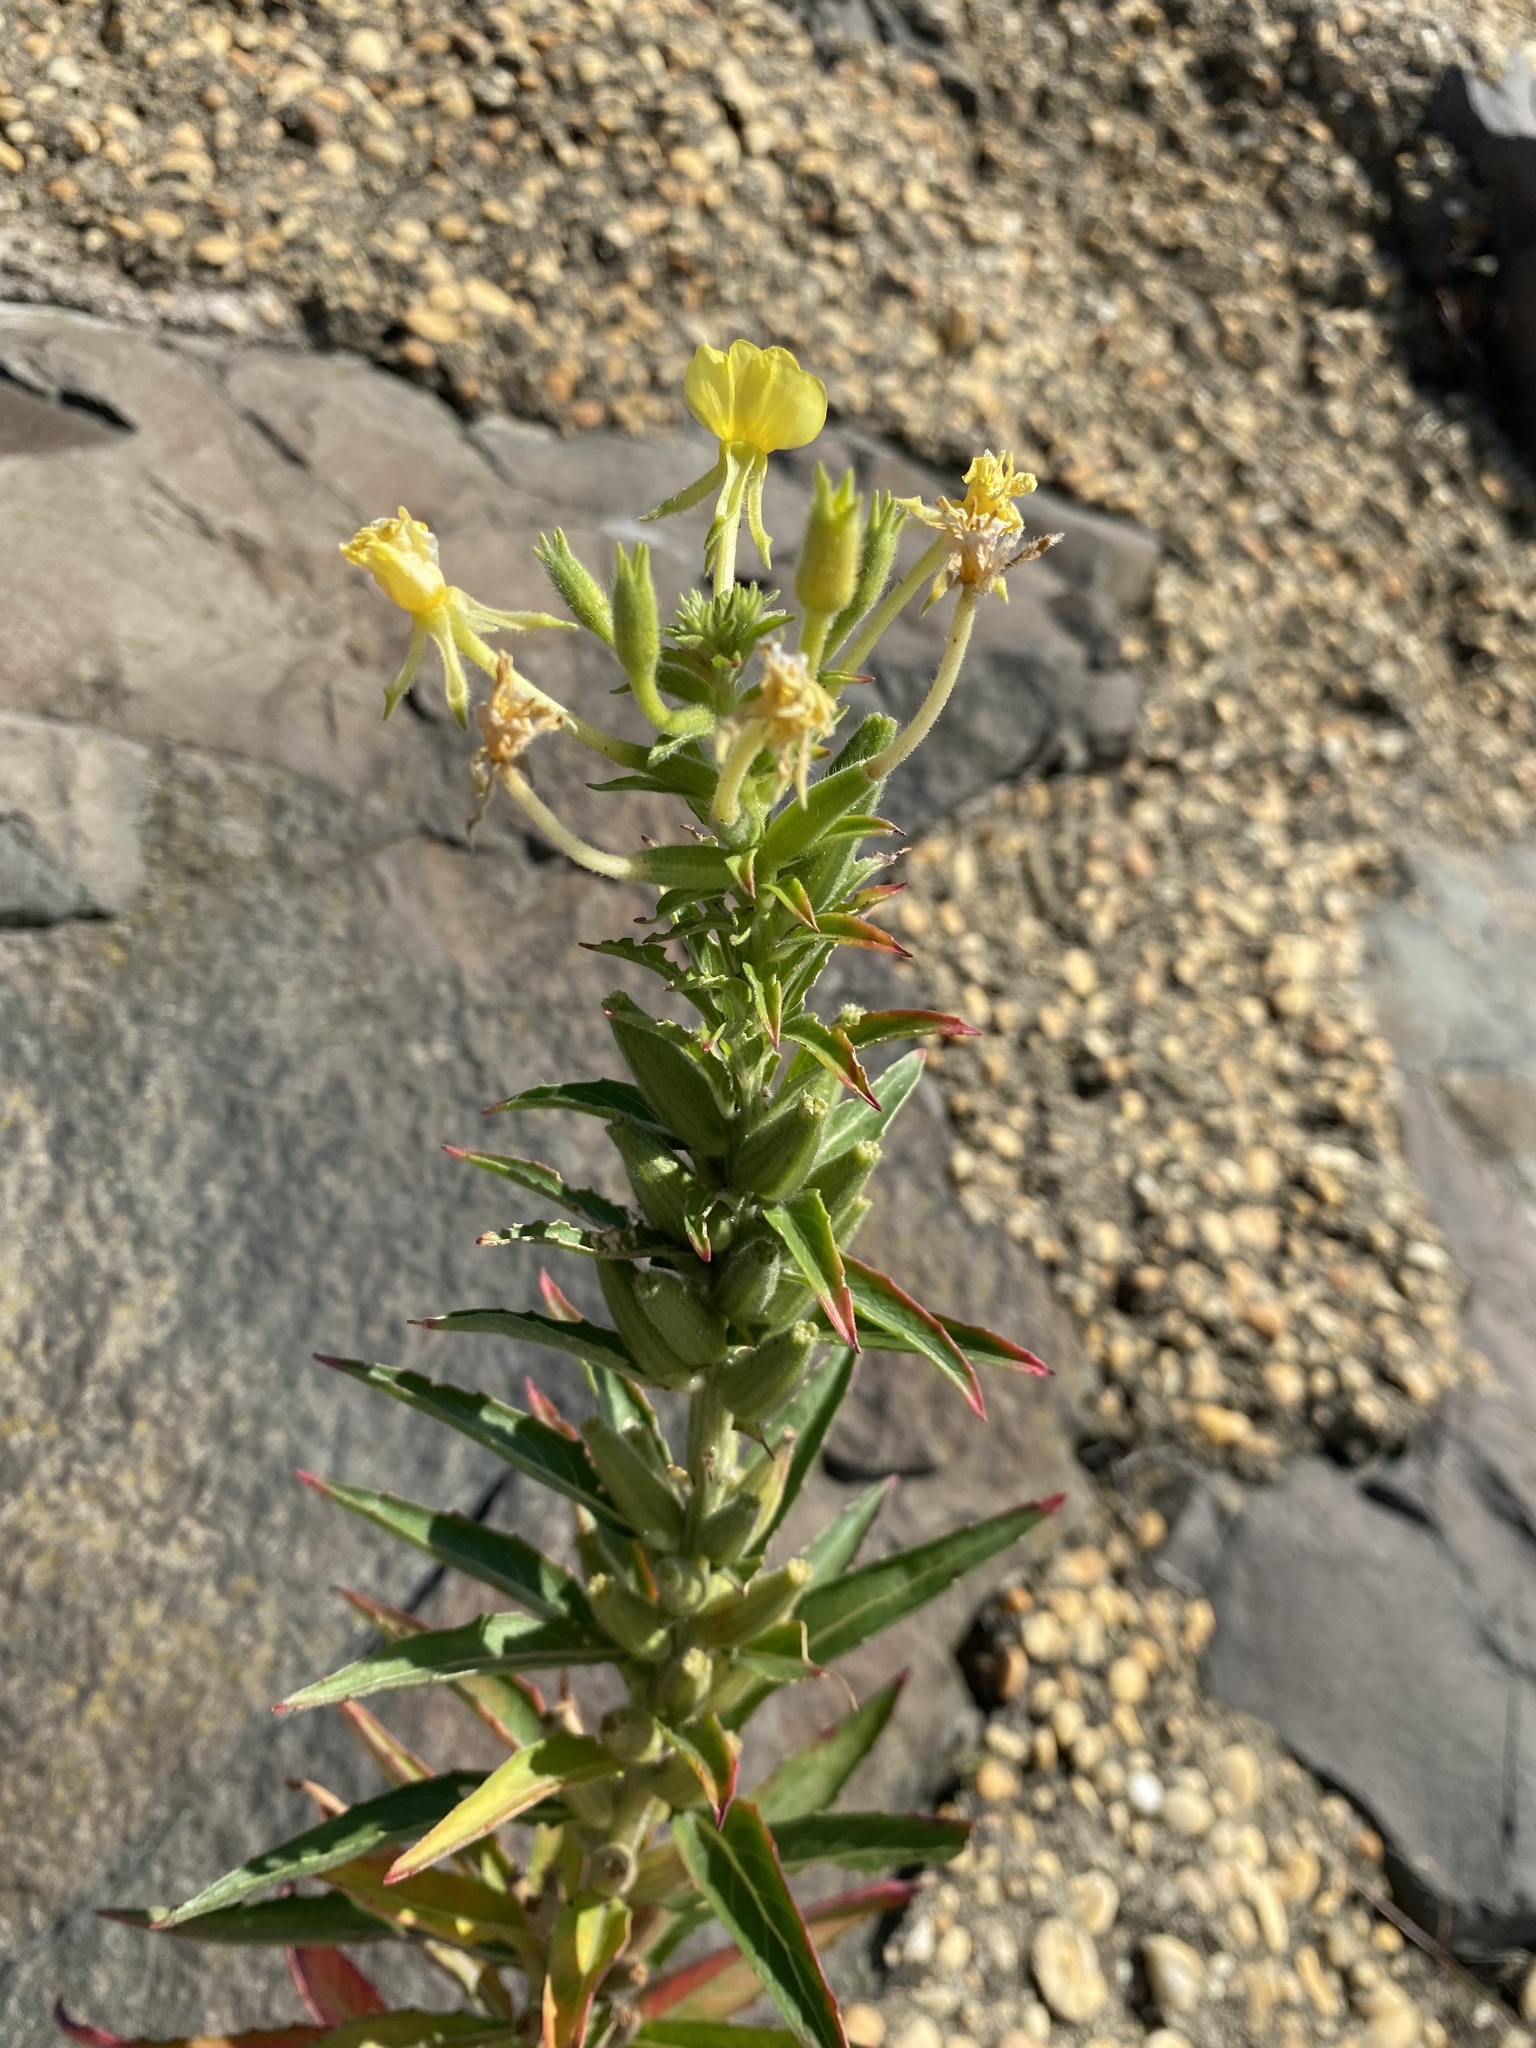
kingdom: Plantae
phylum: Tracheophyta
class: Magnoliopsida
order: Myrtales
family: Onagraceae
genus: Oenothera
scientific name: Oenothera oakesiana
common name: Oakes' evening-primrose
